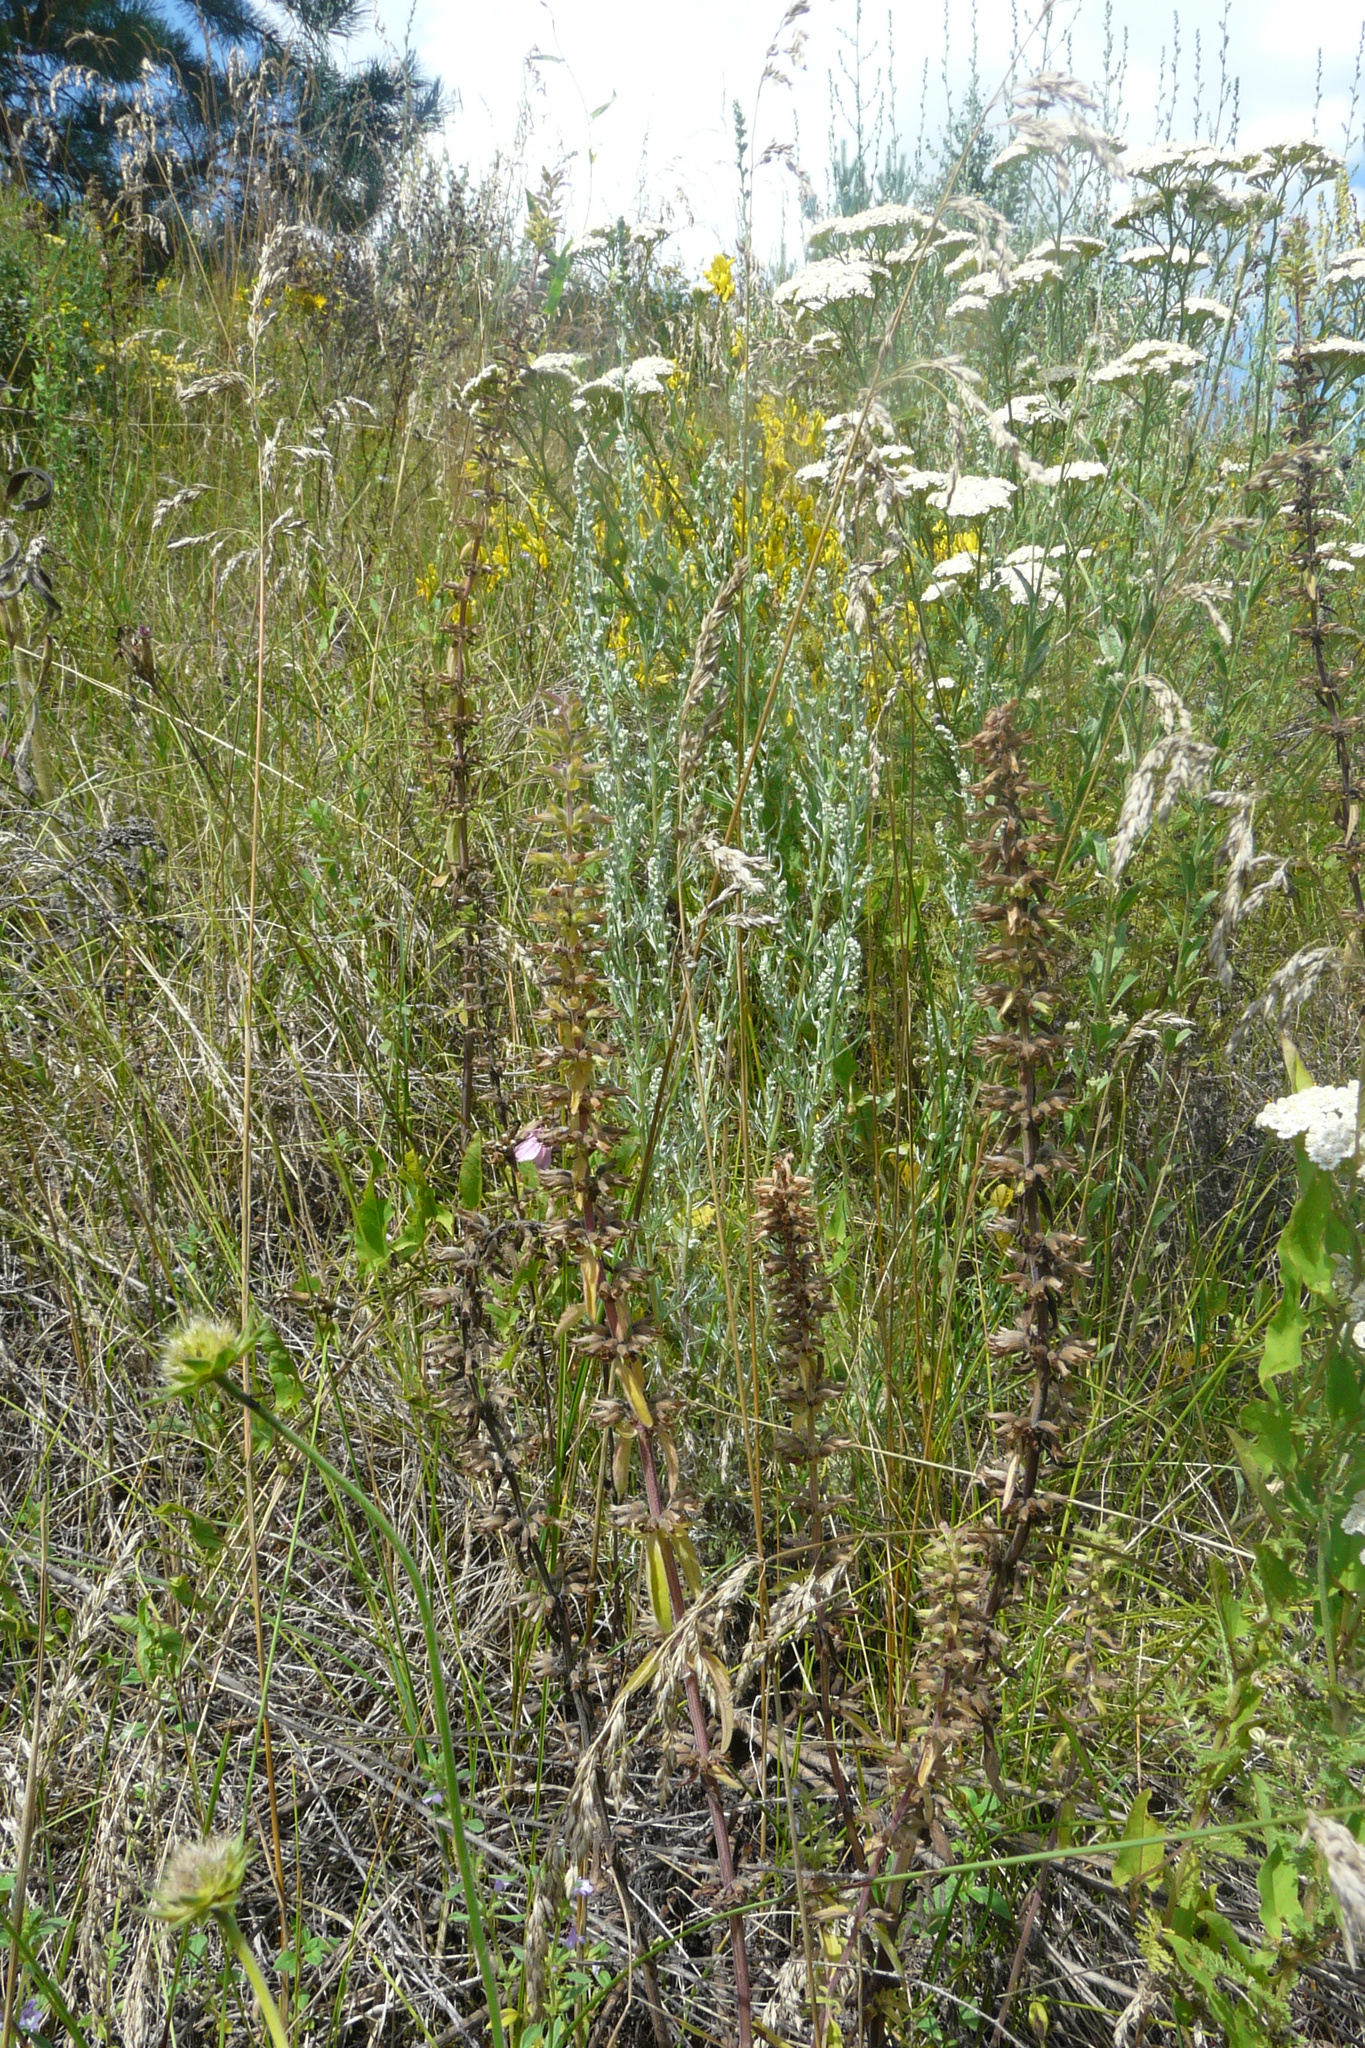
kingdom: Plantae
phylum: Tracheophyta
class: Magnoliopsida
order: Lamiales
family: Lamiaceae
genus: Dracocephalum
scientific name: Dracocephalum thymiflorum
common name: Thymeleaf dragonhead
